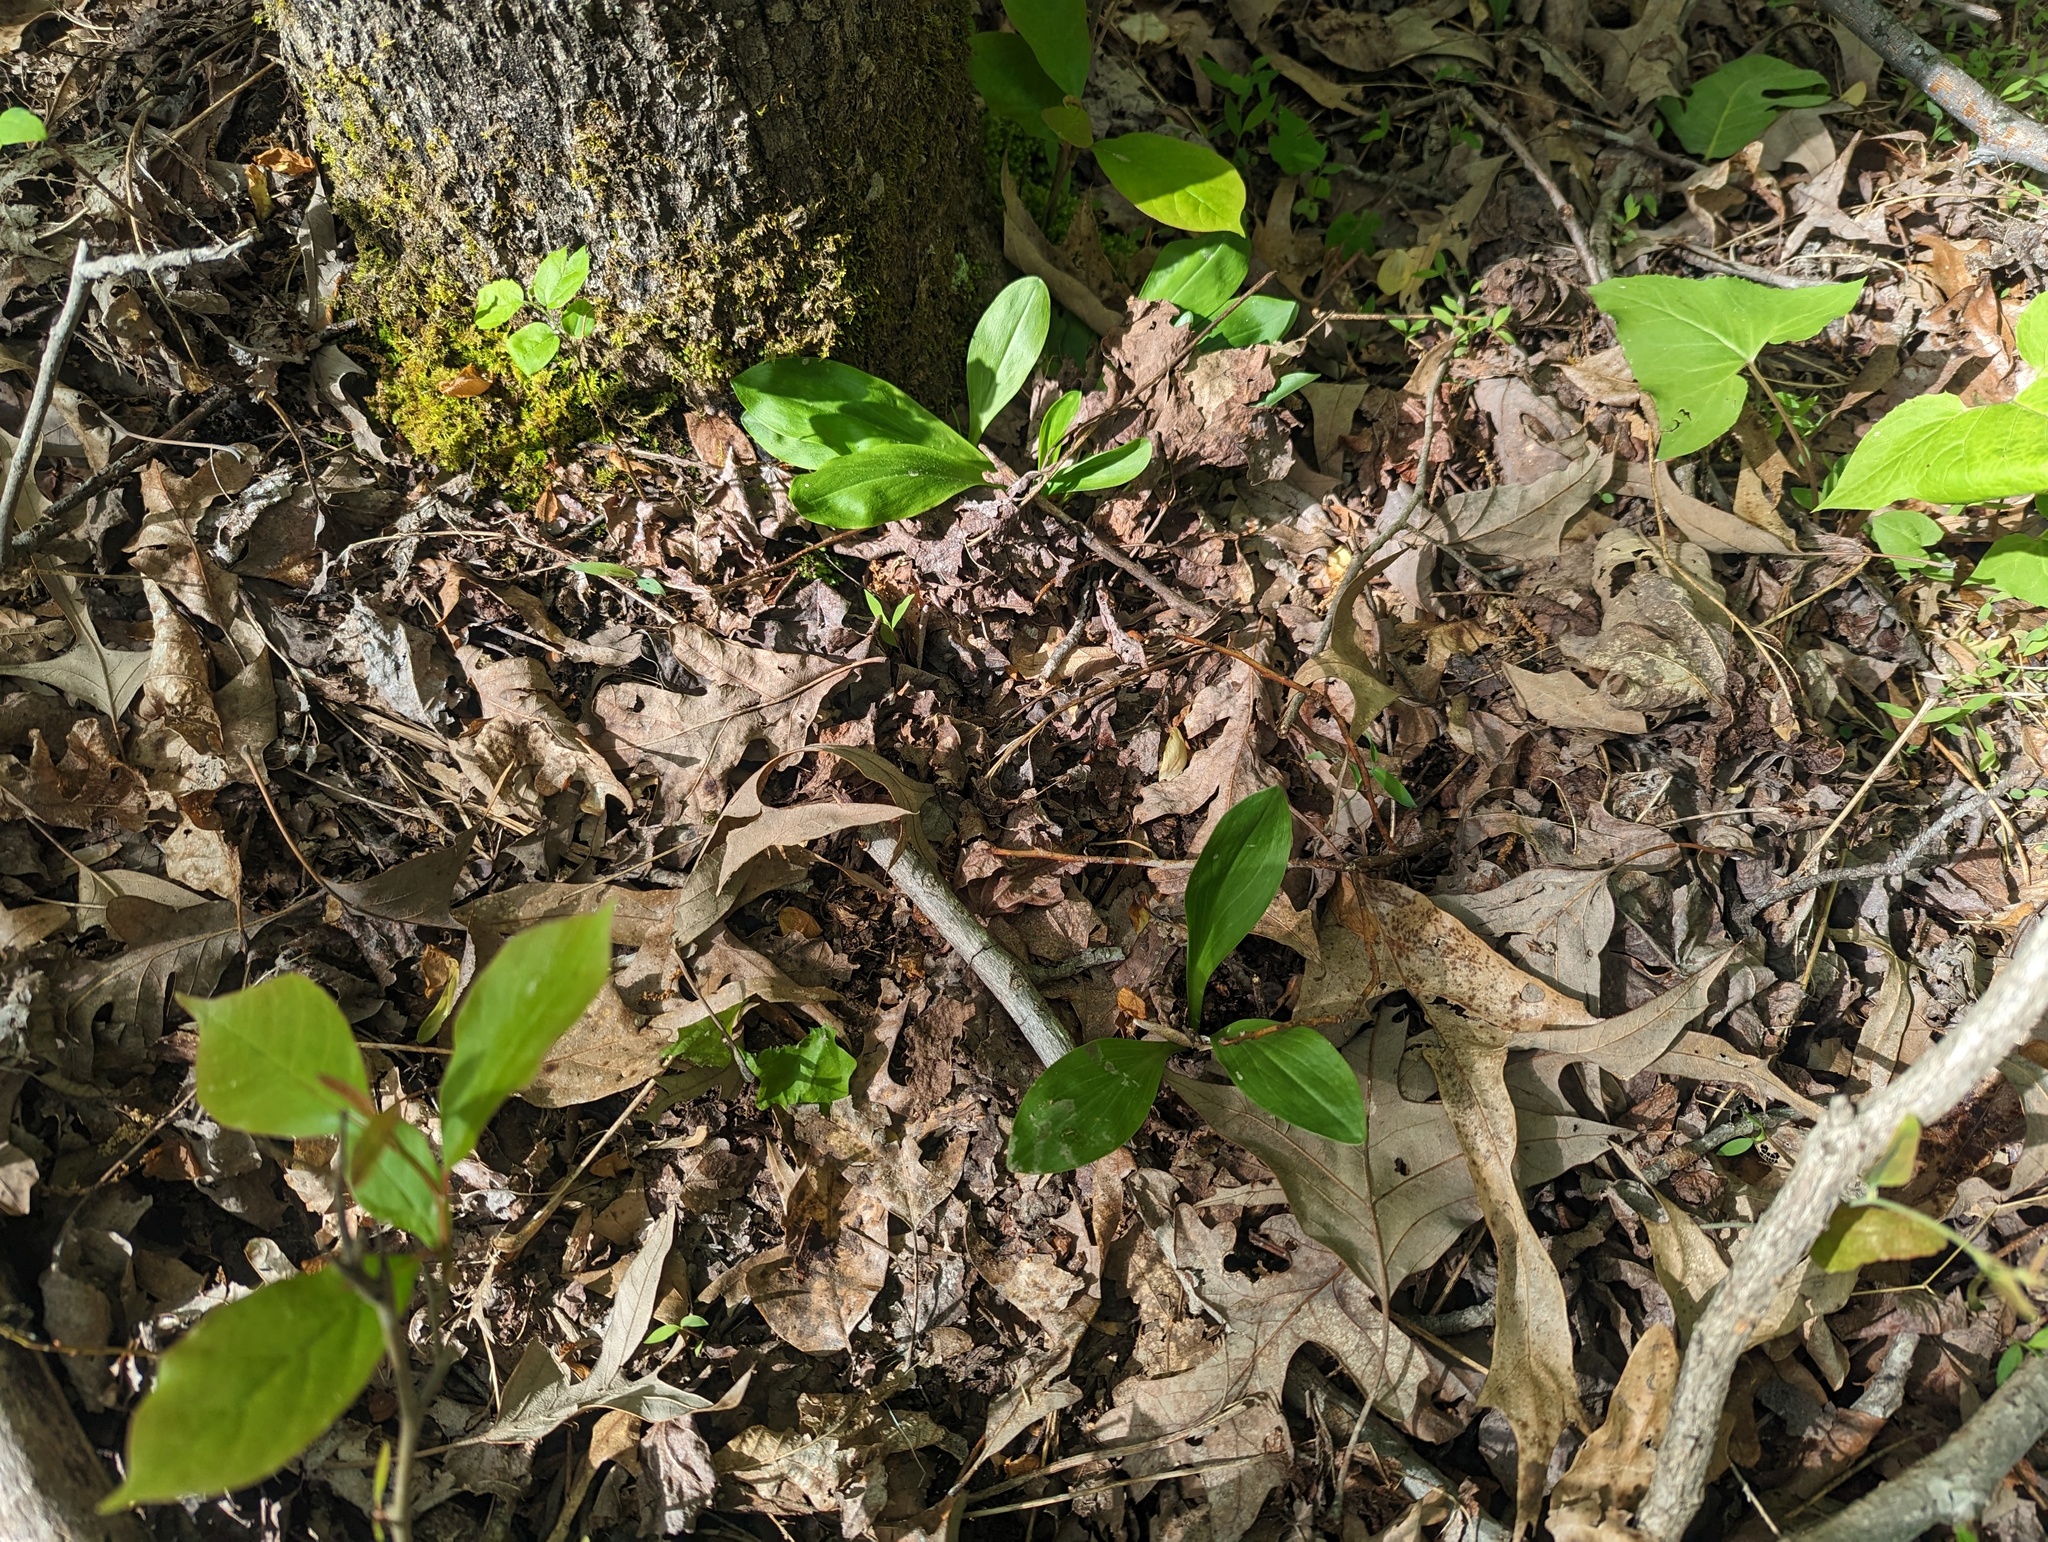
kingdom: Plantae
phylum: Tracheophyta
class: Liliopsida
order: Liliales
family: Melanthiaceae
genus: Chamaelirium
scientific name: Chamaelirium luteum
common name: Fairy-wand
